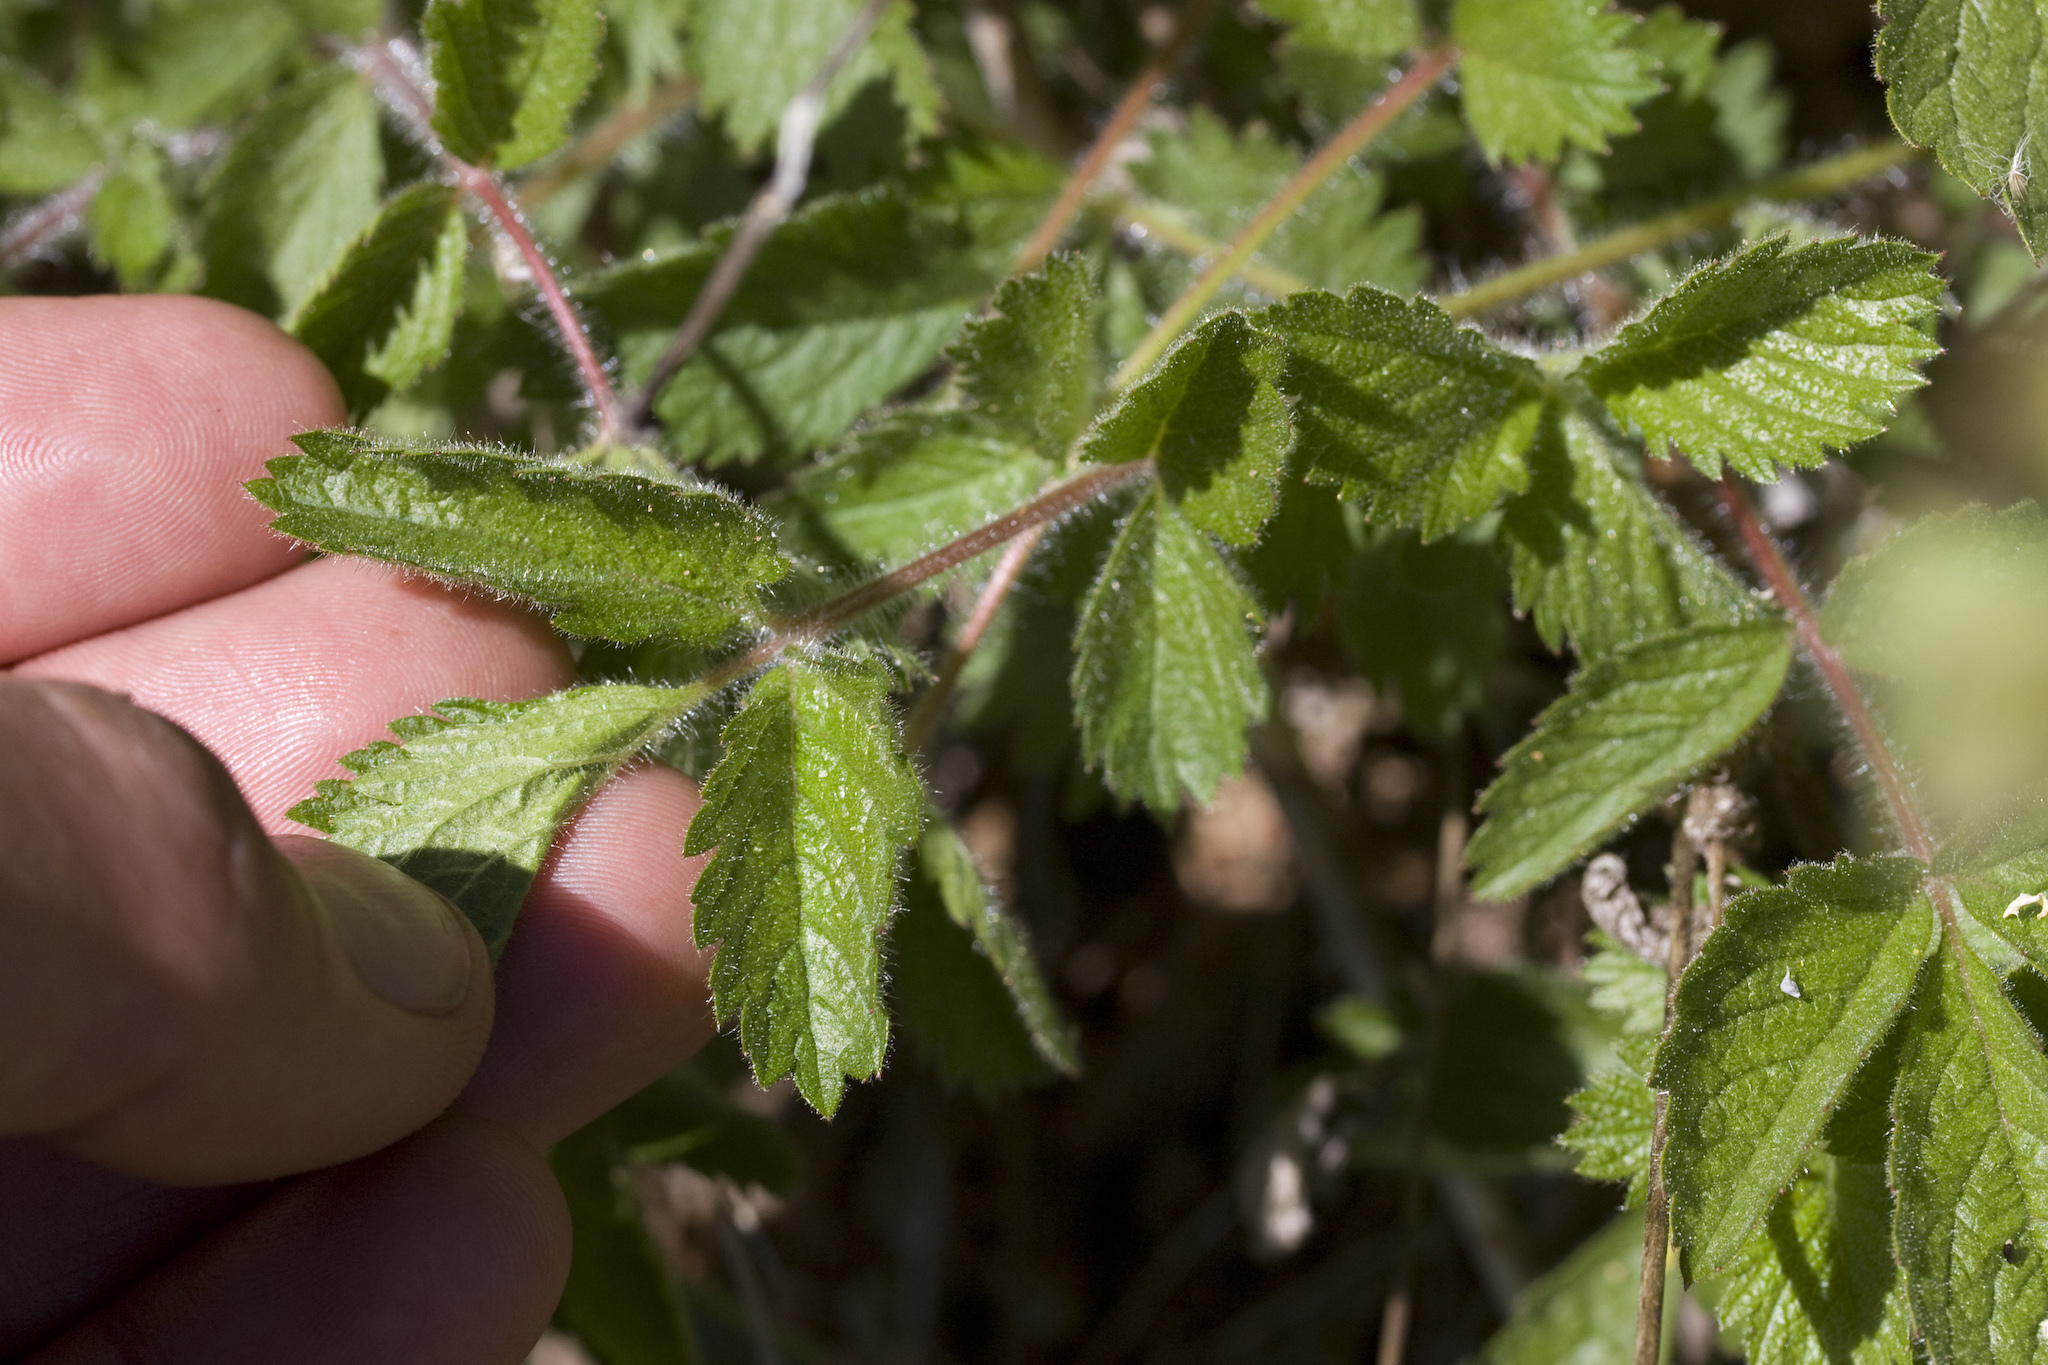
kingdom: Plantae
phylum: Tracheophyta
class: Magnoliopsida
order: Rosales
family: Rosaceae
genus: Drymocallis
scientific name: Drymocallis glandulosa
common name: Sticky cinquefoil
